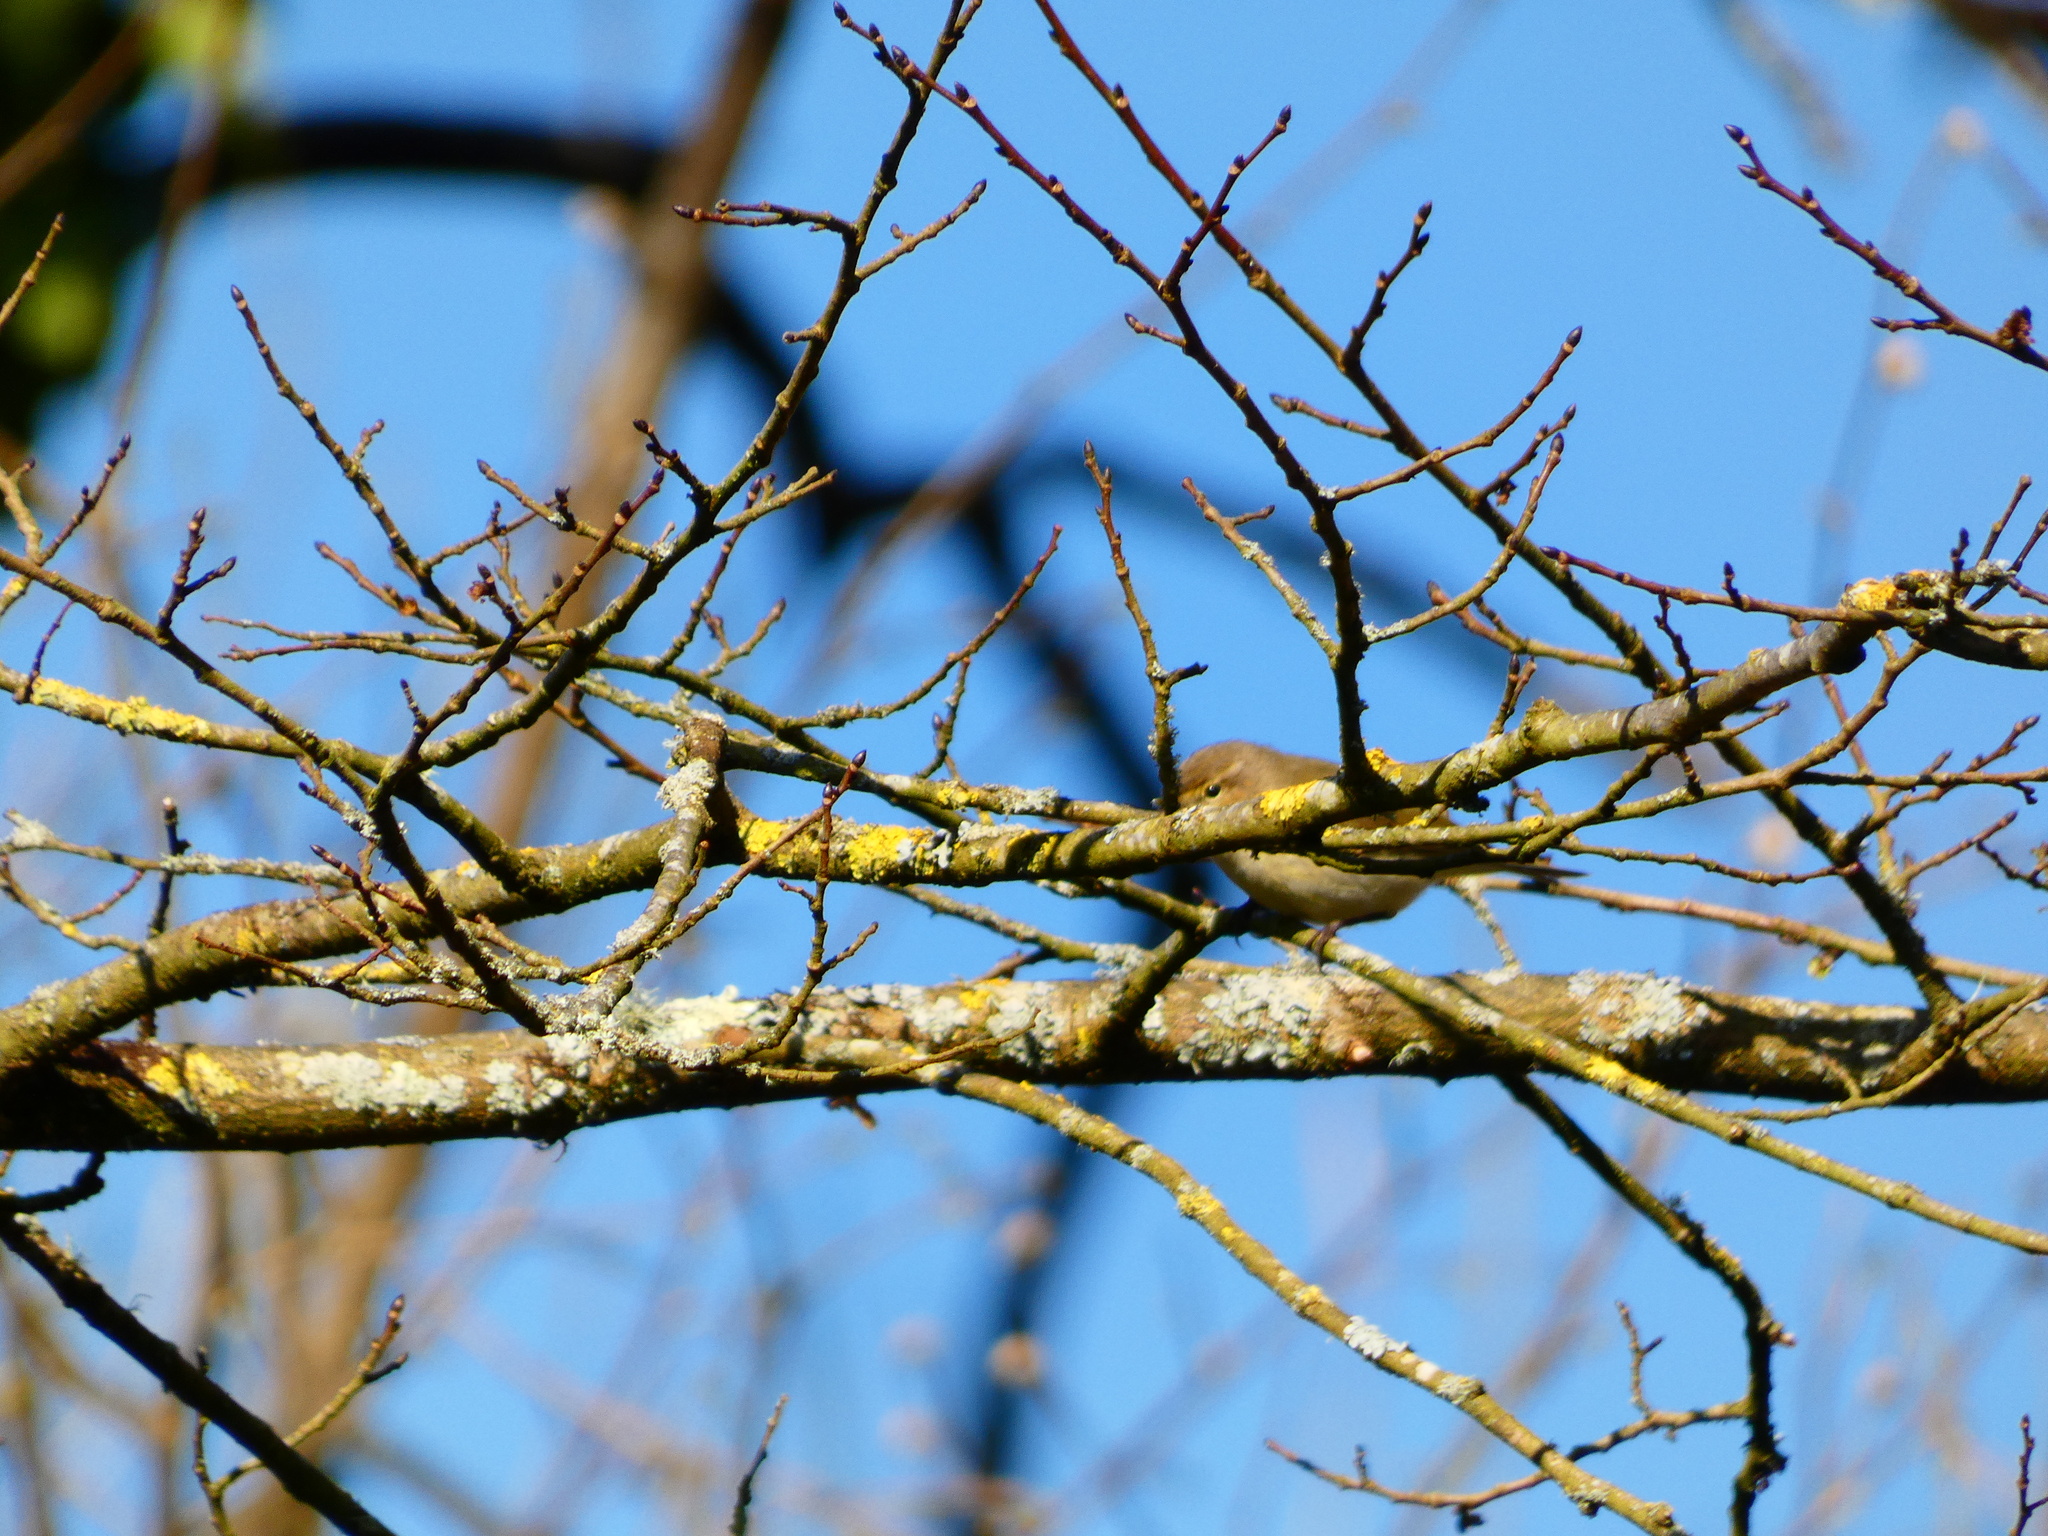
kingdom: Animalia
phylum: Chordata
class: Aves
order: Passeriformes
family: Phylloscopidae
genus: Phylloscopus
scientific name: Phylloscopus collybita
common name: Common chiffchaff
